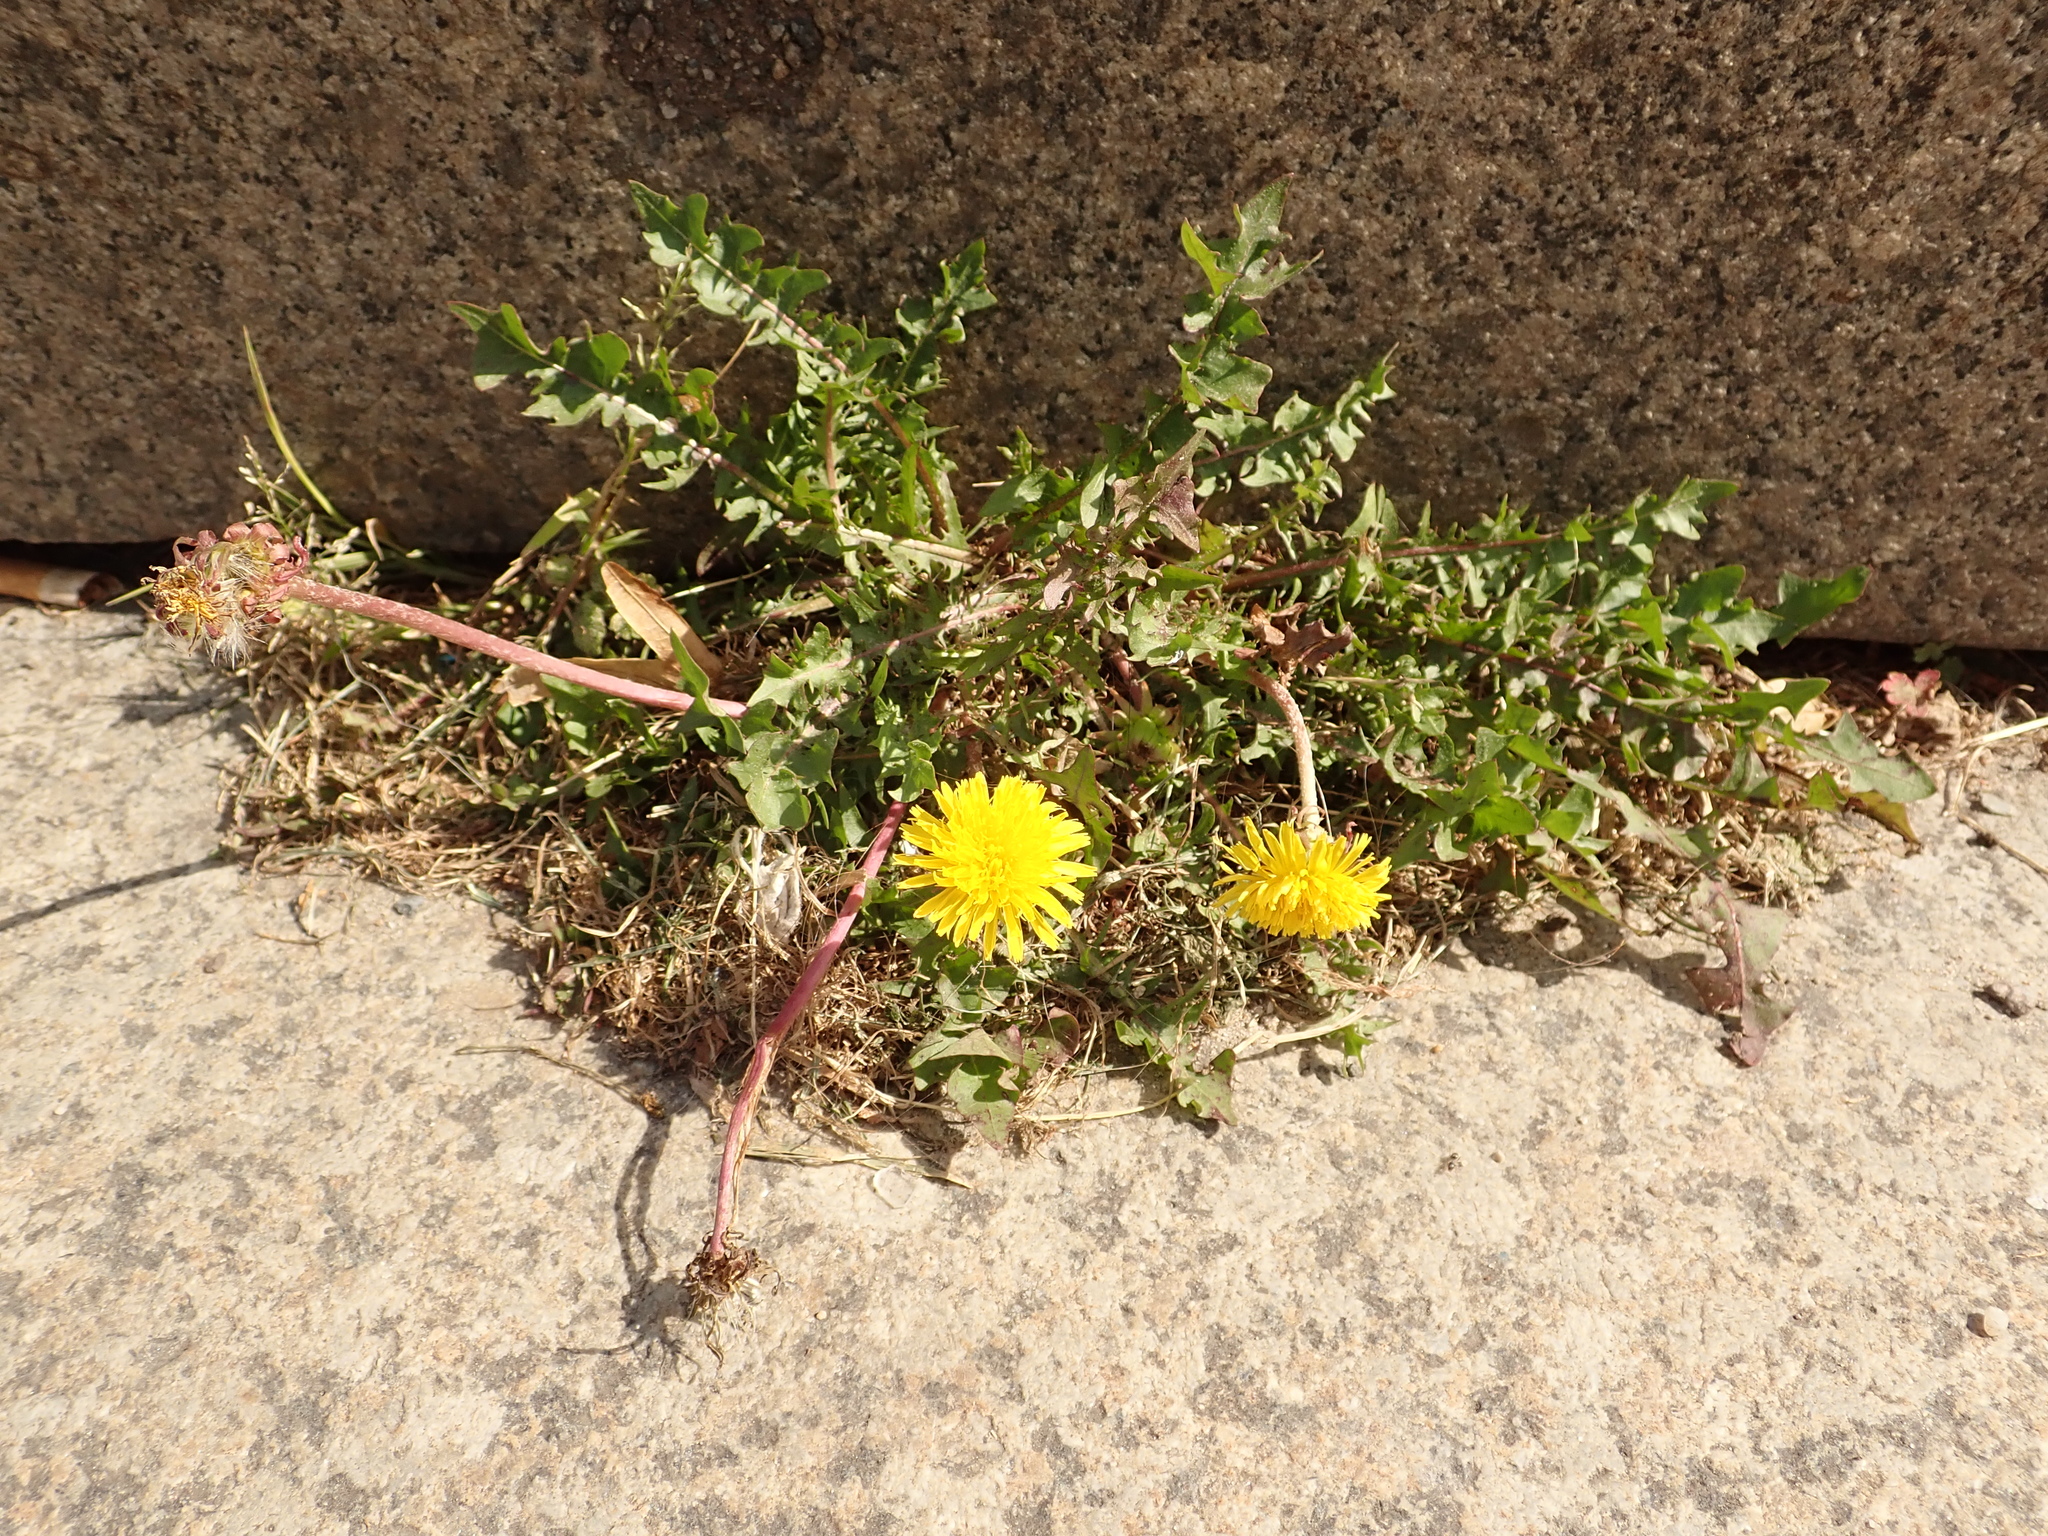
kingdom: Plantae
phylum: Tracheophyta
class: Magnoliopsida
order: Asterales
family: Asteraceae
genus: Taraxacum
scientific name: Taraxacum officinale
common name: Common dandelion
